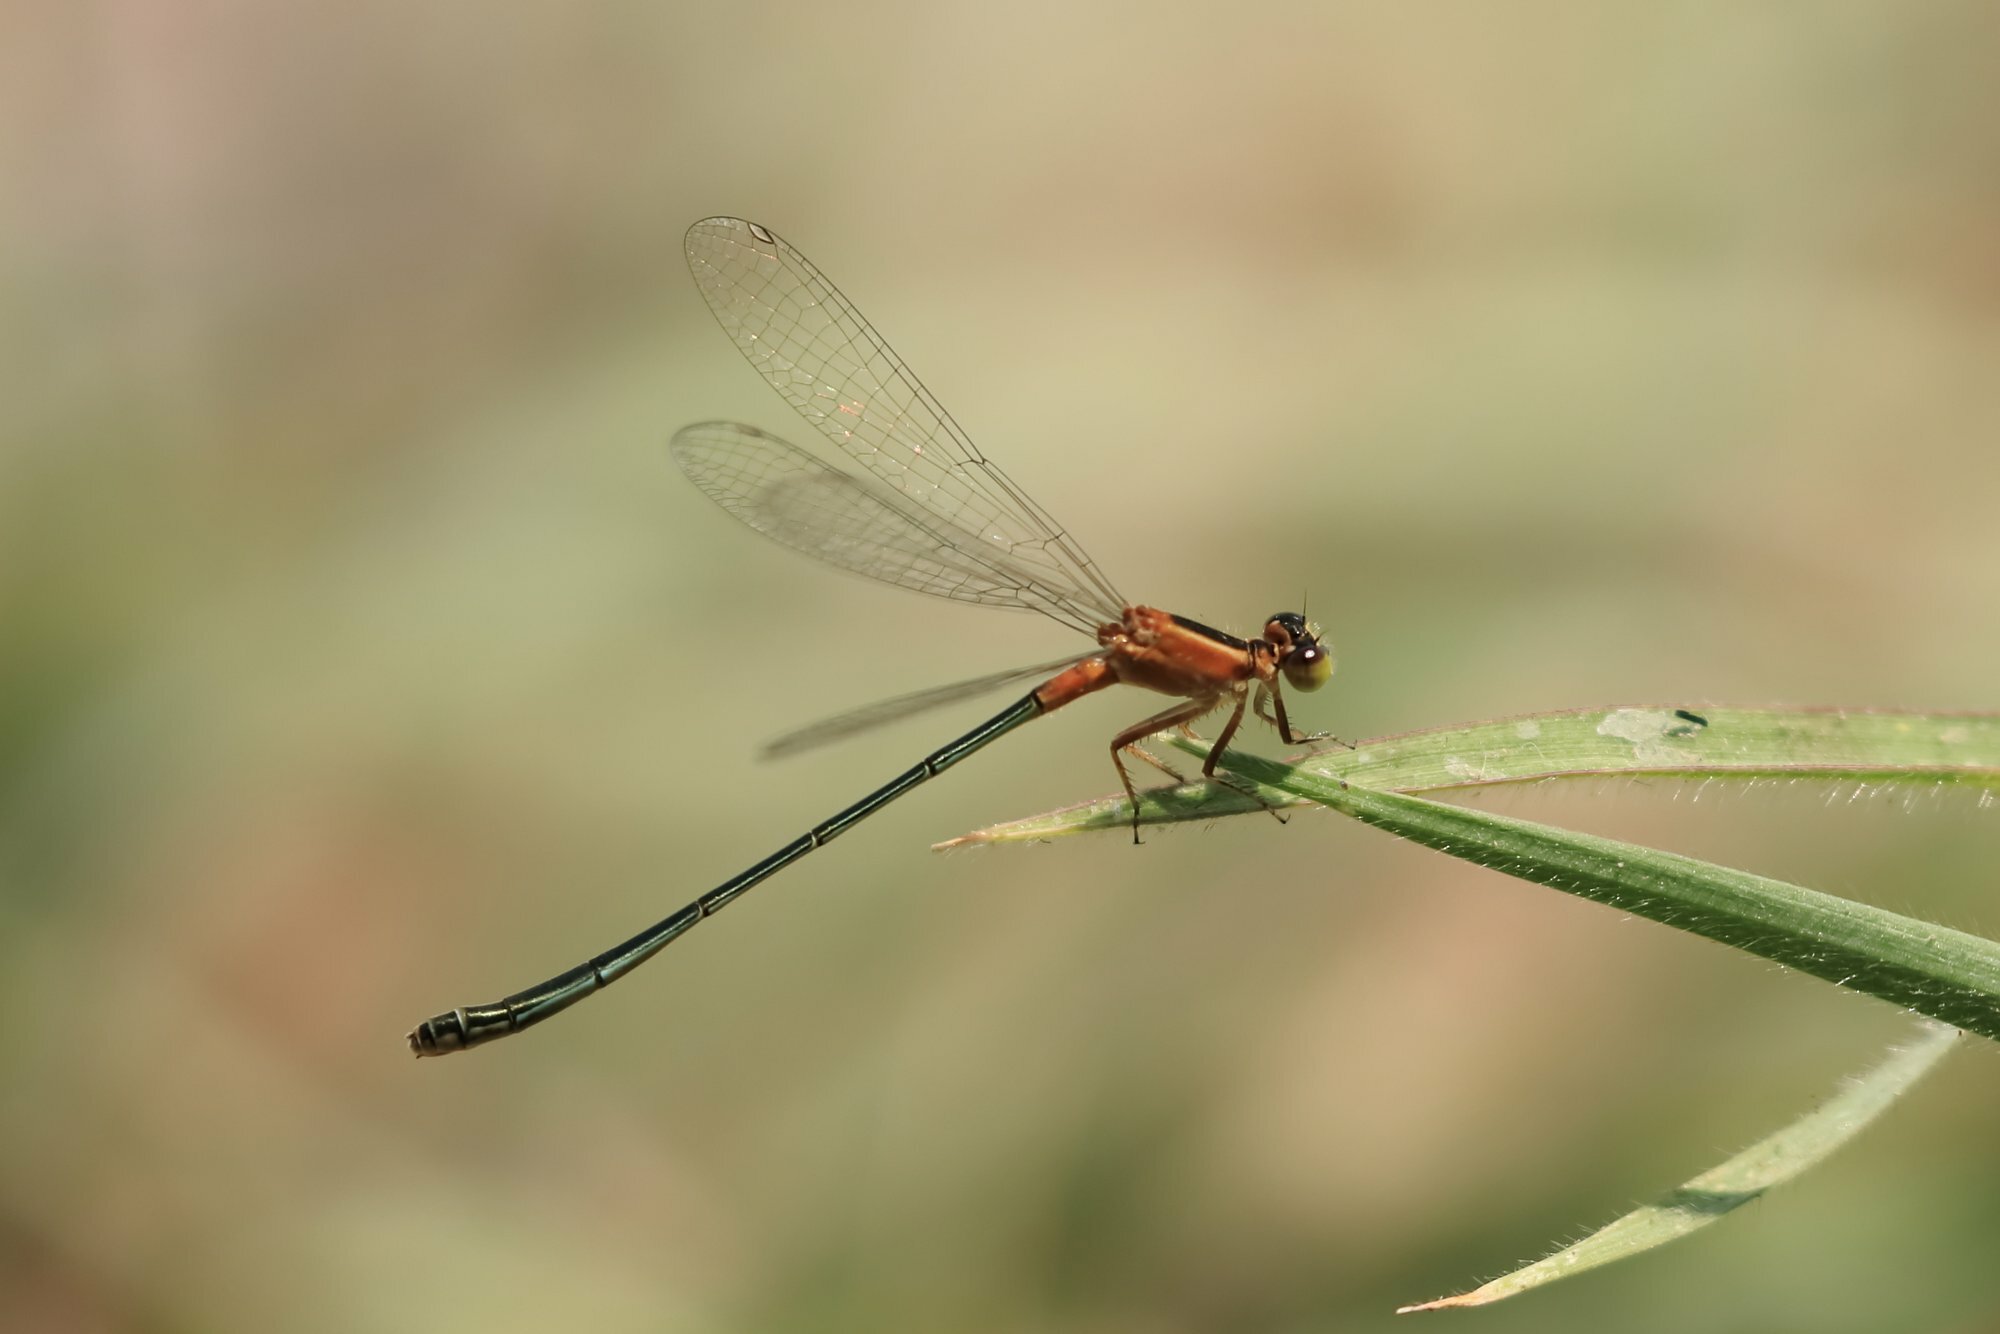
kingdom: Animalia
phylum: Arthropoda
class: Insecta
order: Odonata
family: Coenagrionidae
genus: Ischnura
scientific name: Ischnura senegalensis
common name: Tropical bluetail
